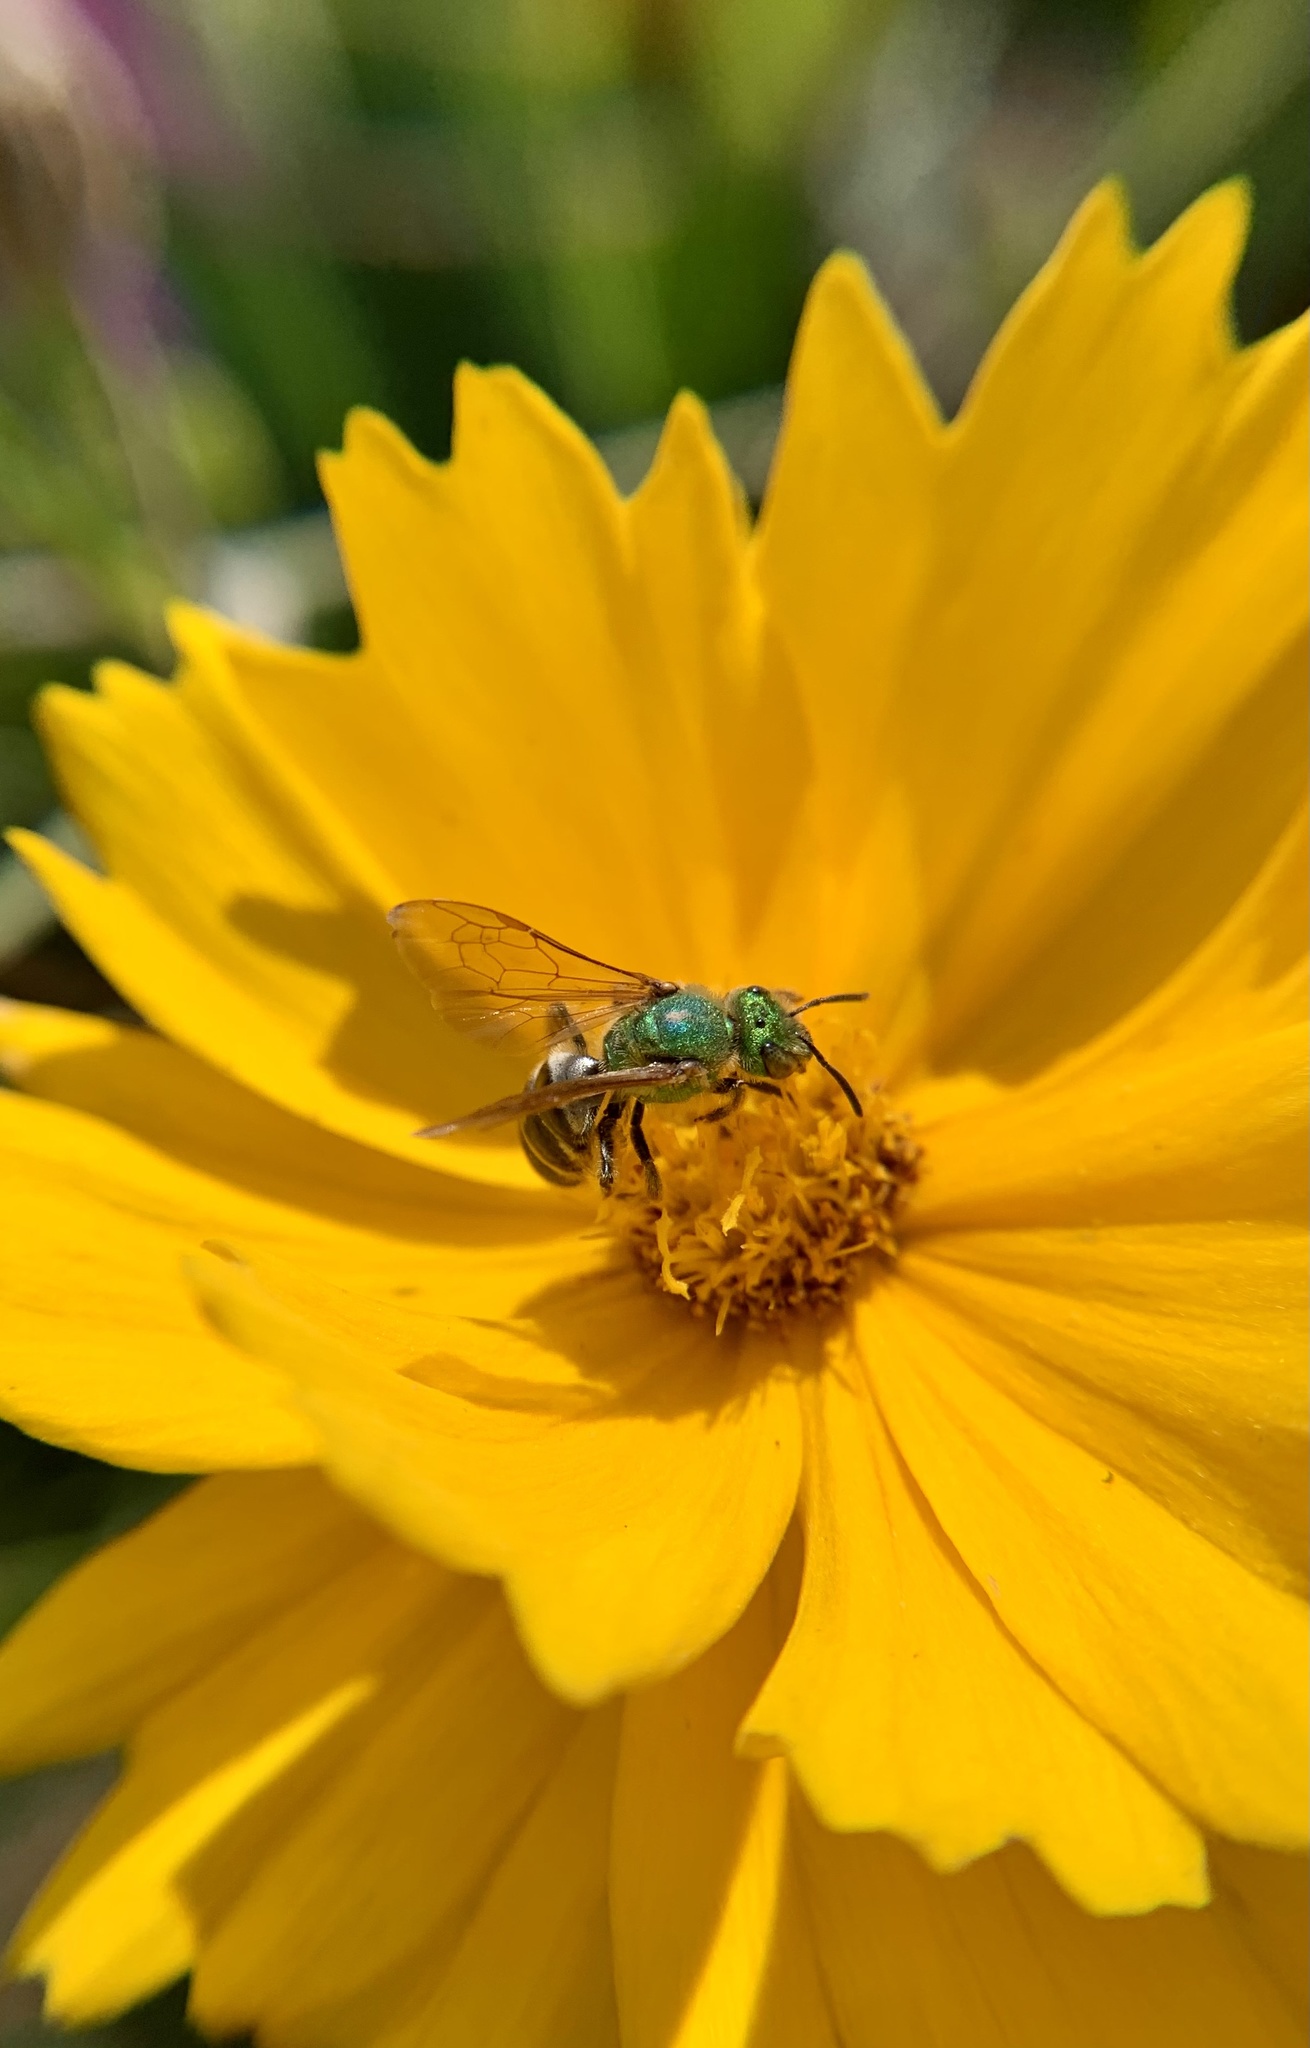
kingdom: Animalia
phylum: Arthropoda
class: Insecta
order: Hymenoptera
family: Halictidae
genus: Agapostemon
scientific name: Agapostemon virescens
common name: Bicolored striped sweat bee
